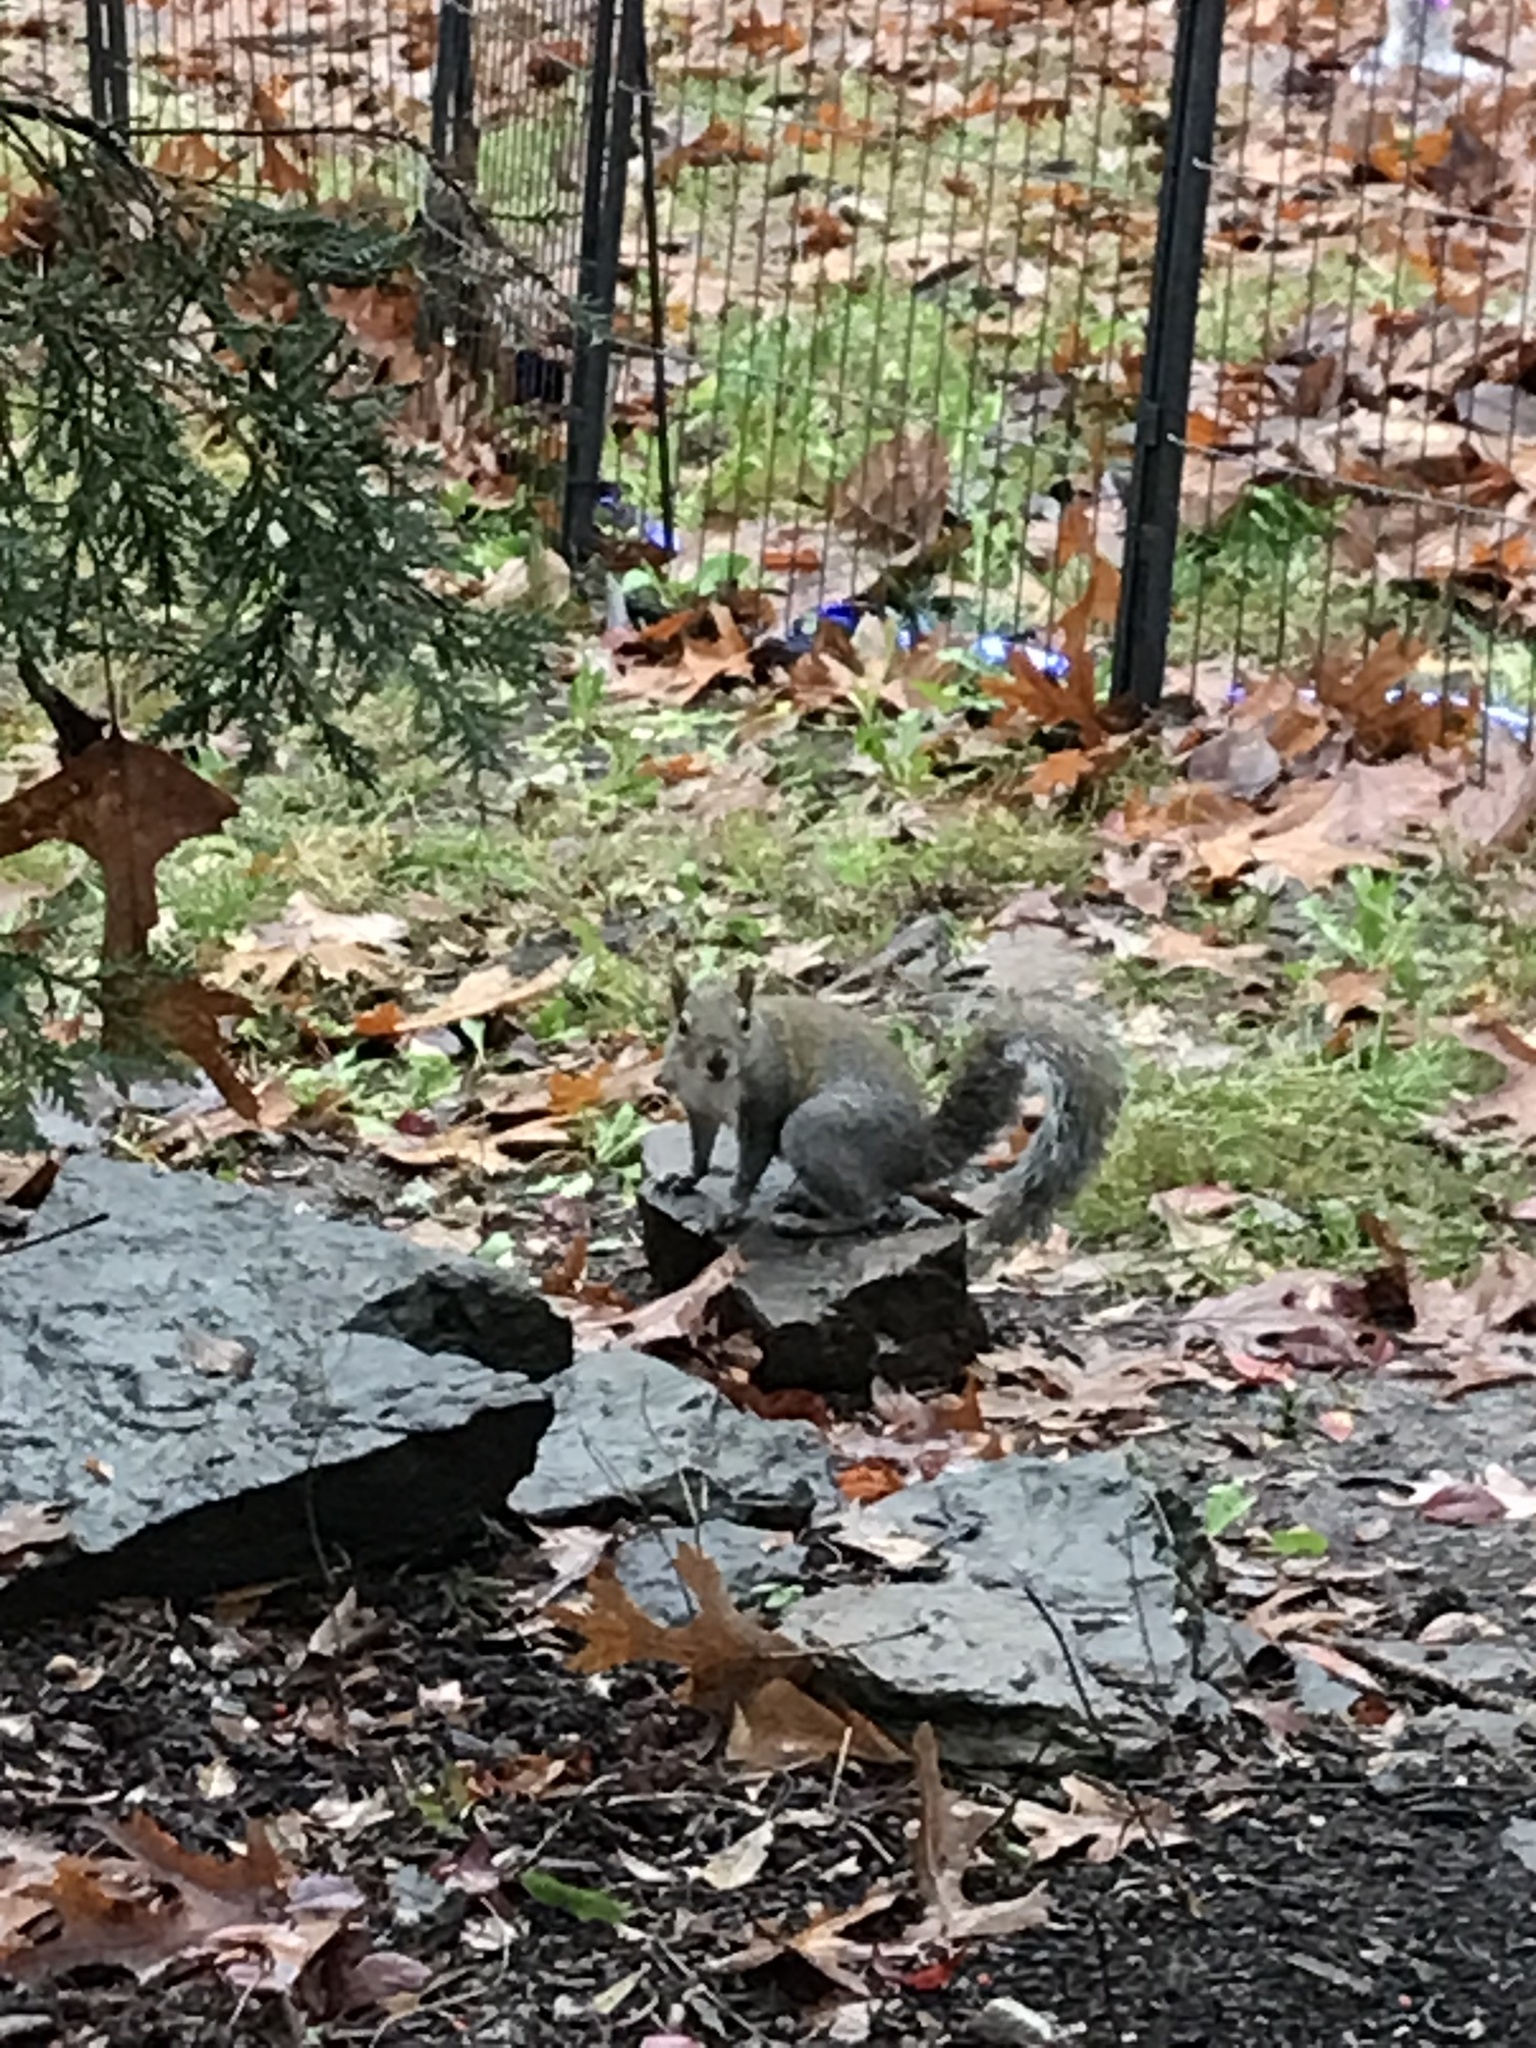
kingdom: Animalia
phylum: Chordata
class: Mammalia
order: Rodentia
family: Sciuridae
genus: Sciurus
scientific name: Sciurus carolinensis
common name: Eastern gray squirrel
